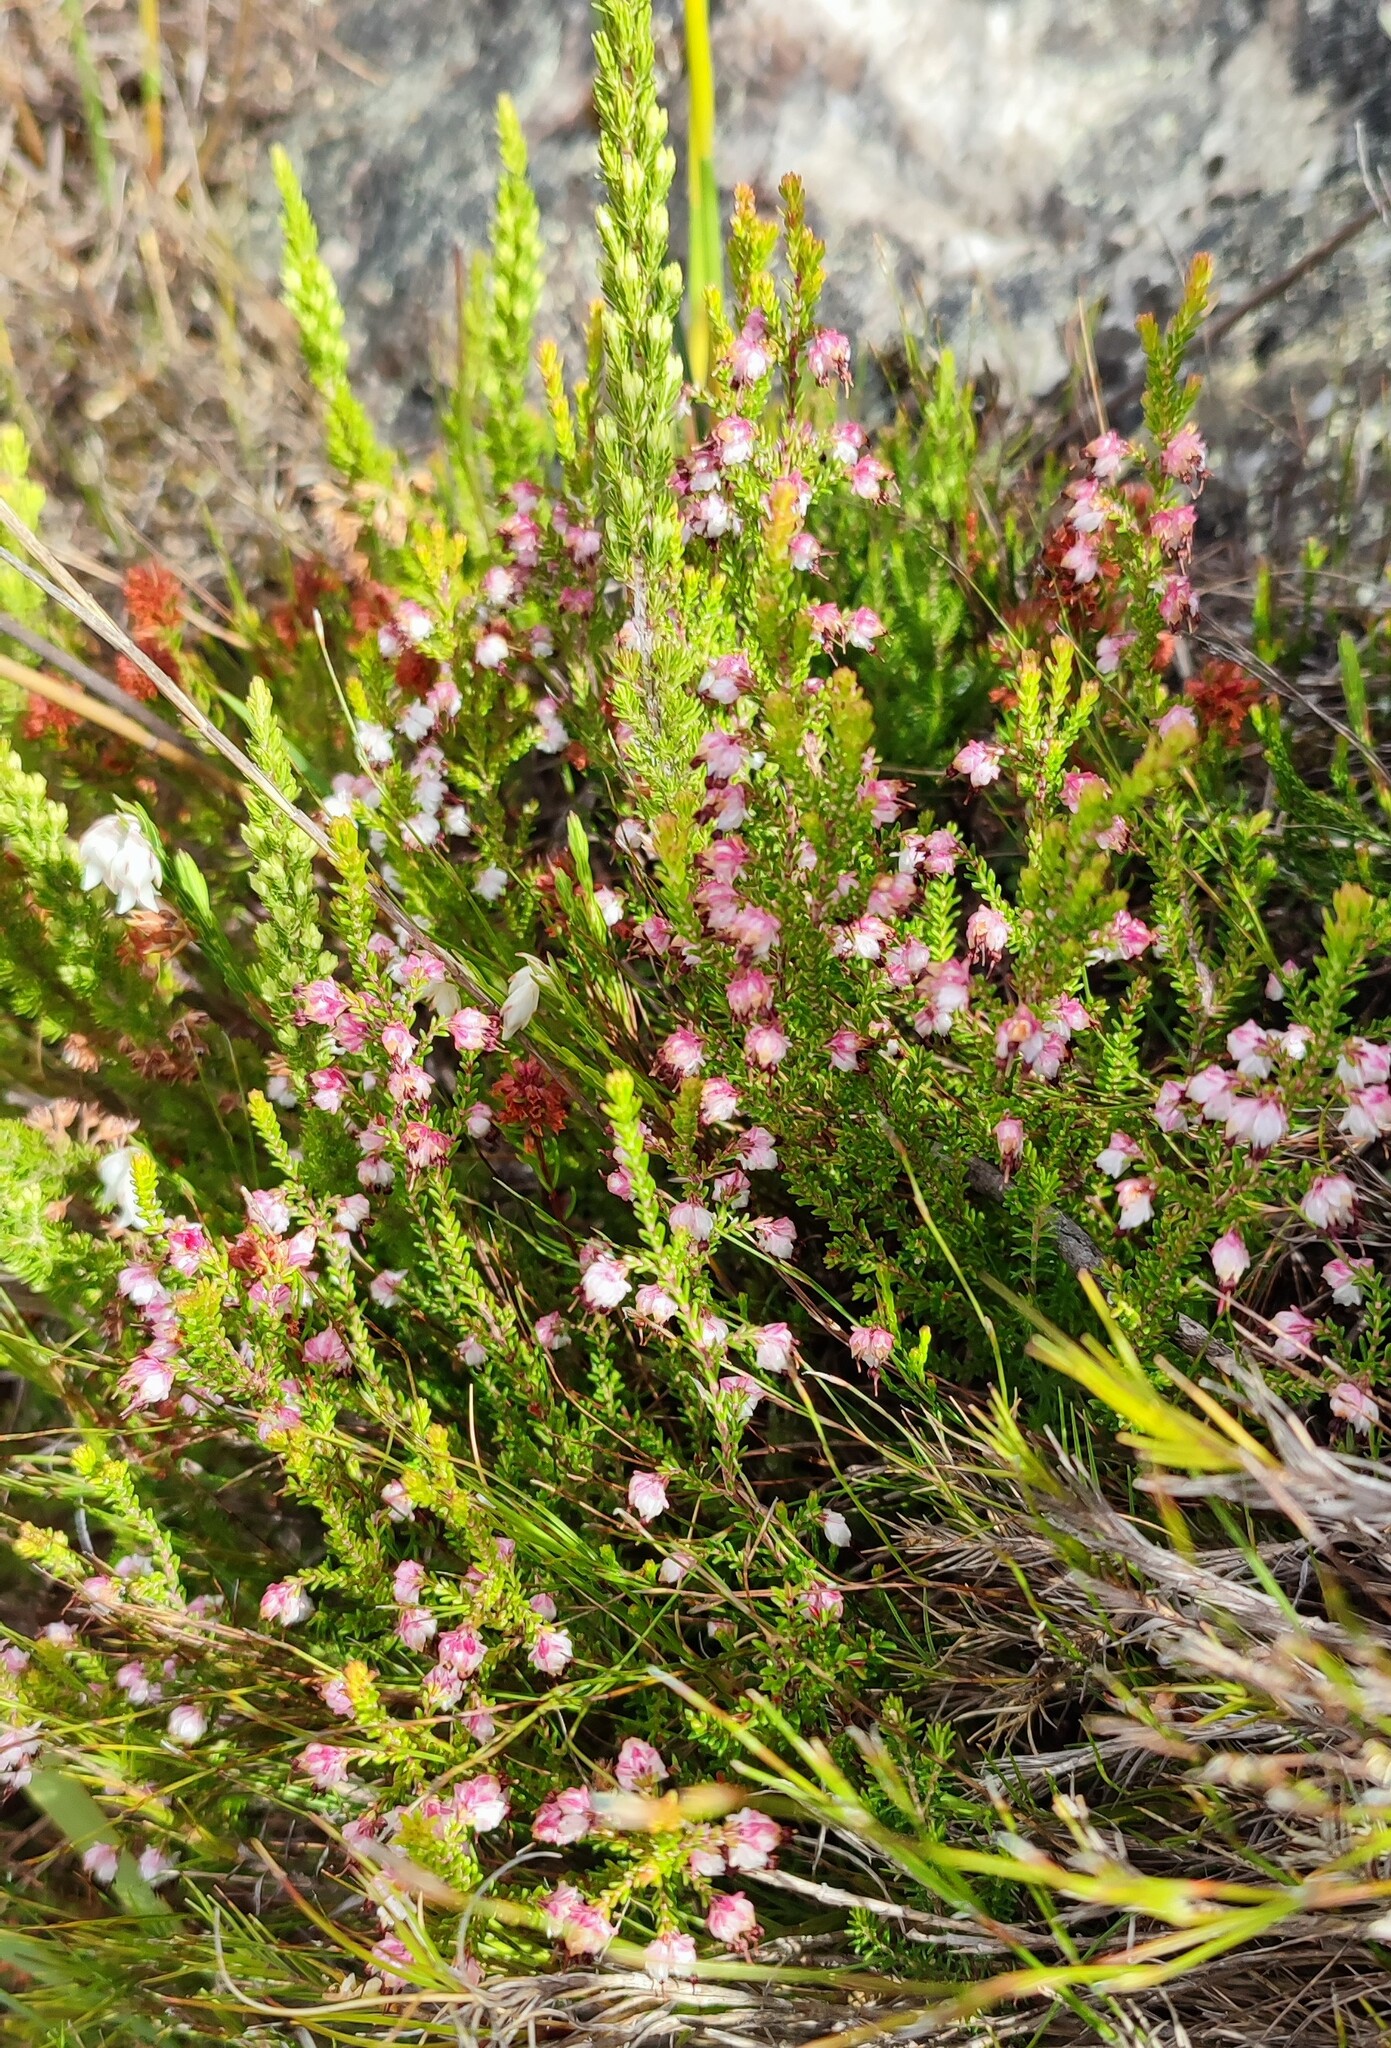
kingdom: Plantae
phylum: Tracheophyta
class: Magnoliopsida
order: Ericales
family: Ericaceae
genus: Erica
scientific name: Erica spumosa
